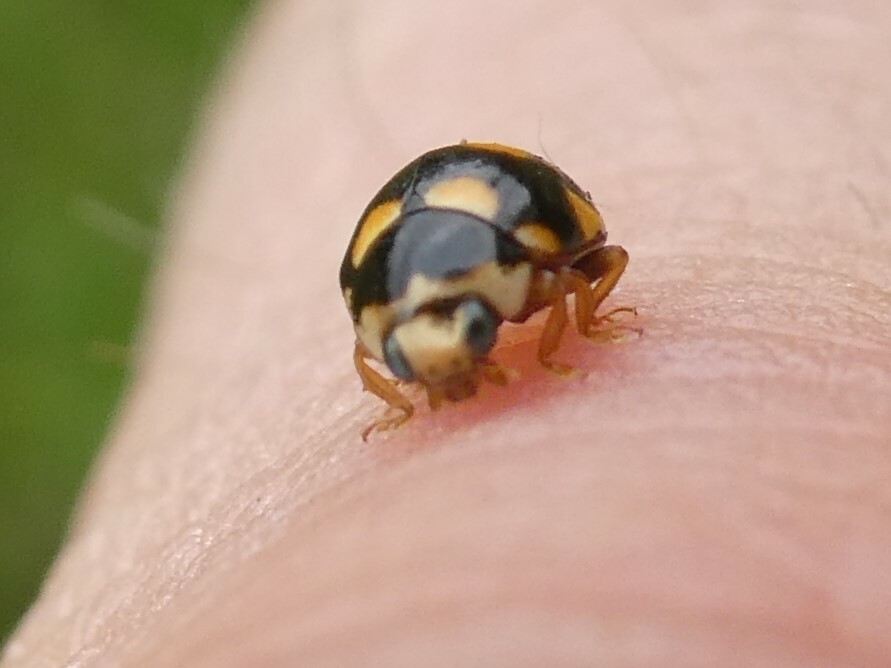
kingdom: Animalia
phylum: Arthropoda
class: Insecta
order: Coleoptera
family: Coccinellidae
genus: Brachiacantha
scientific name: Brachiacantha ursina
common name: Ursine spurleg lady beetle
